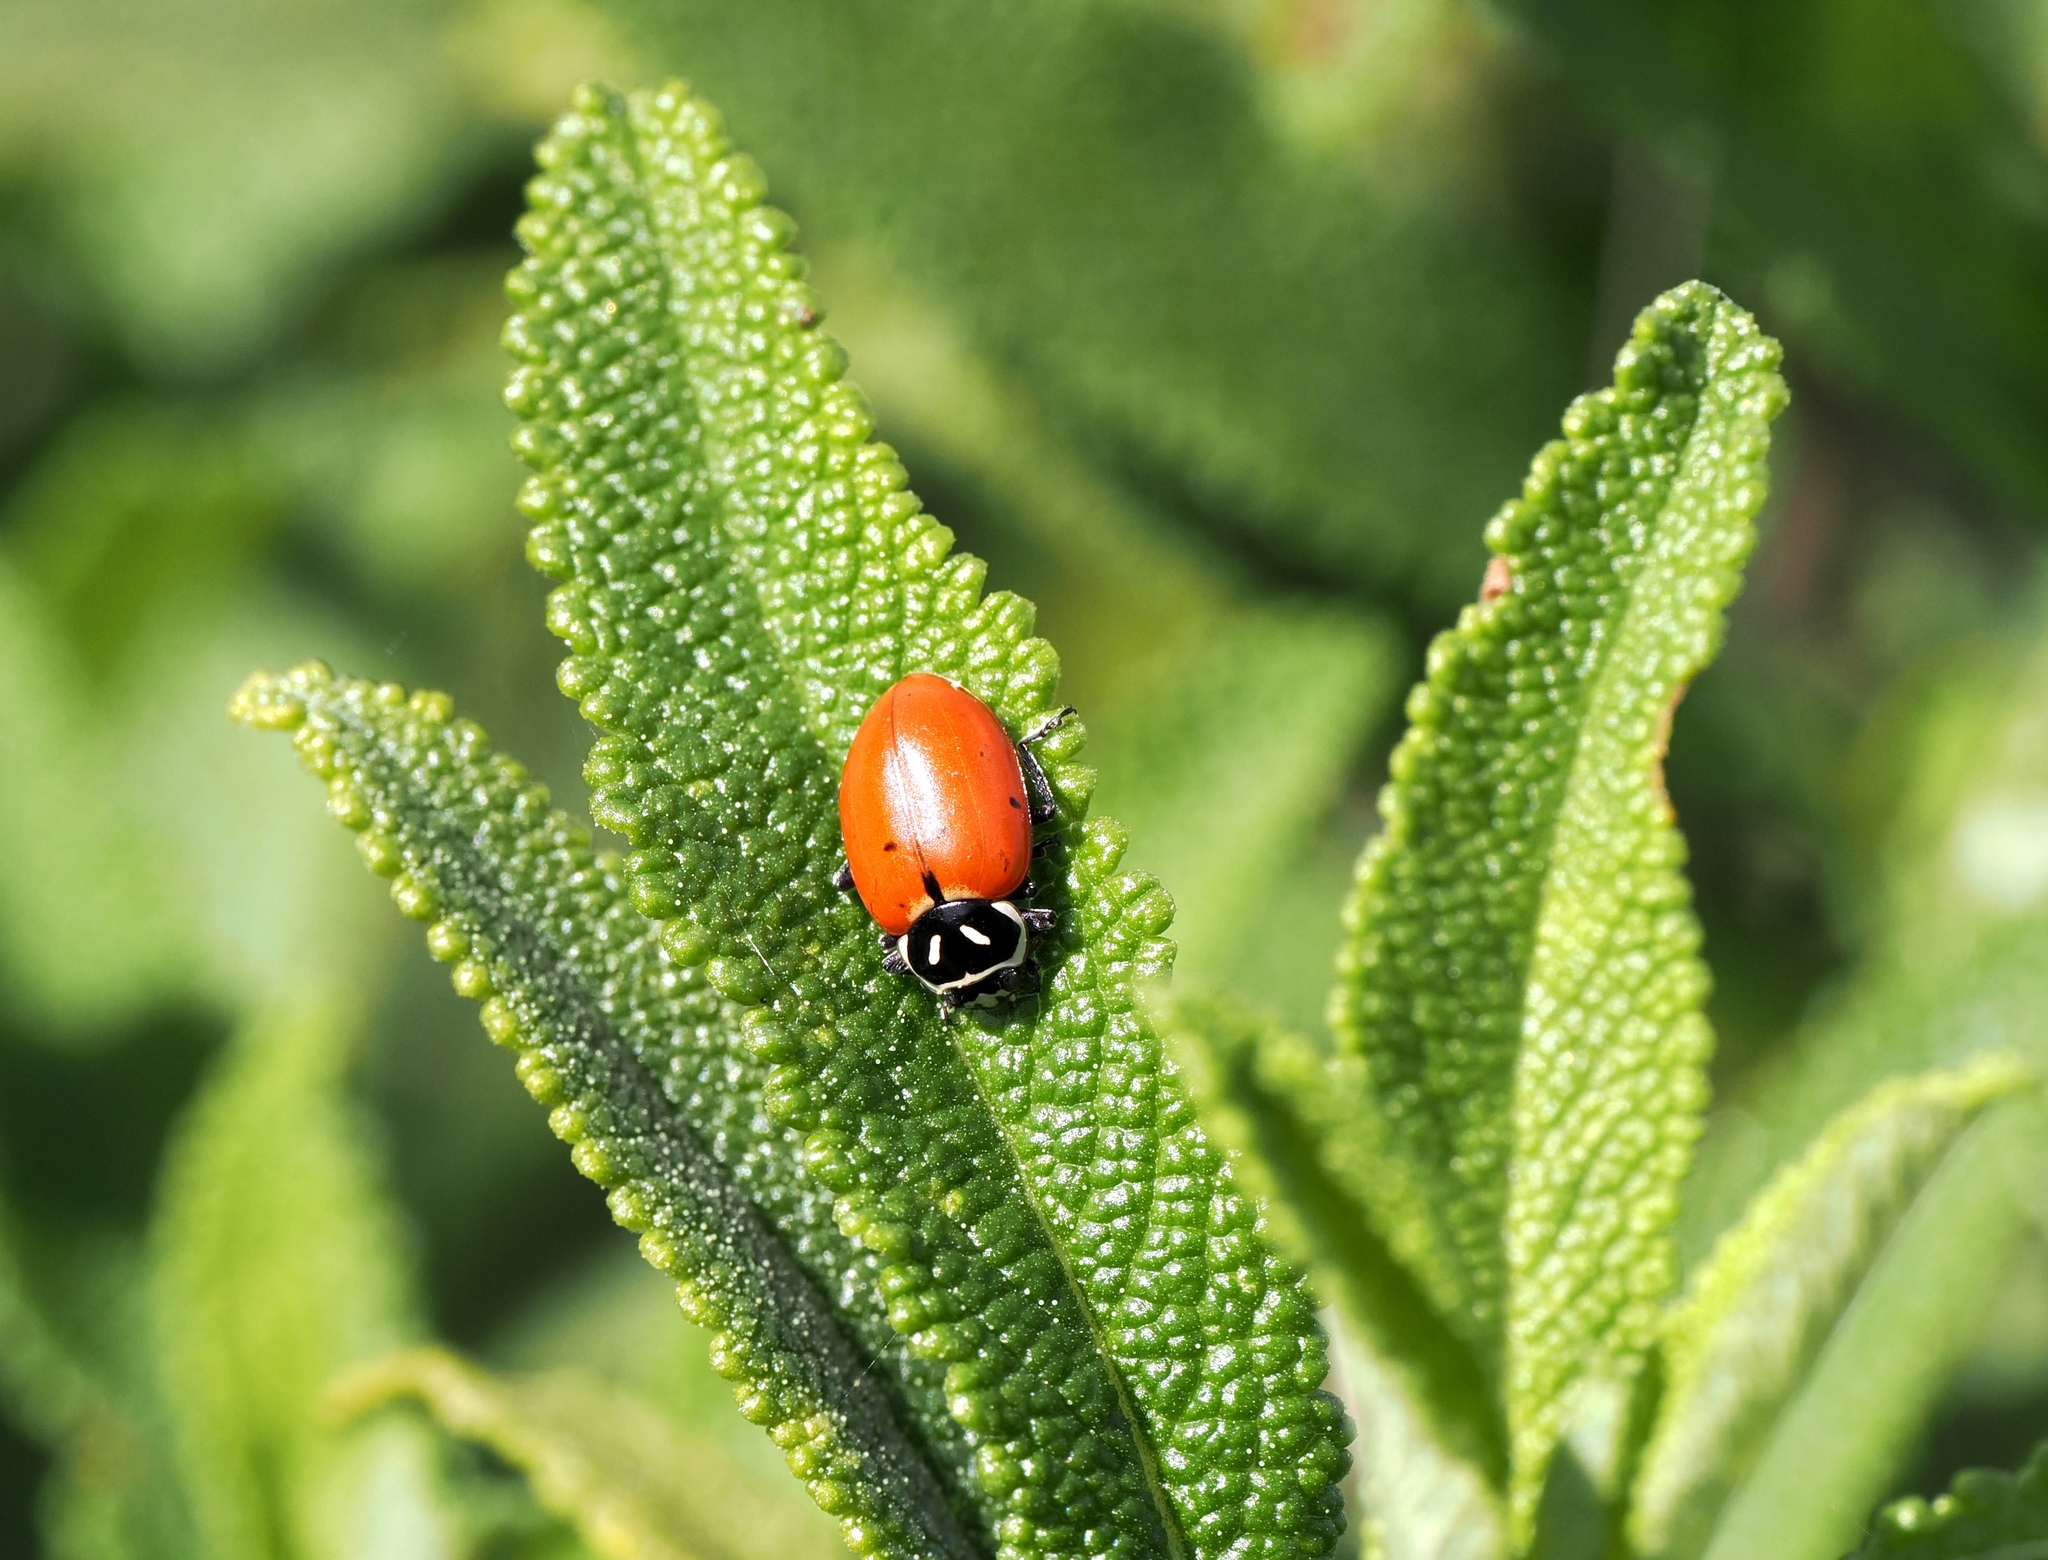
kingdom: Animalia
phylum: Arthropoda
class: Insecta
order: Coleoptera
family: Coccinellidae
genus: Hippodamia
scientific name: Hippodamia convergens
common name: Convergent lady beetle
